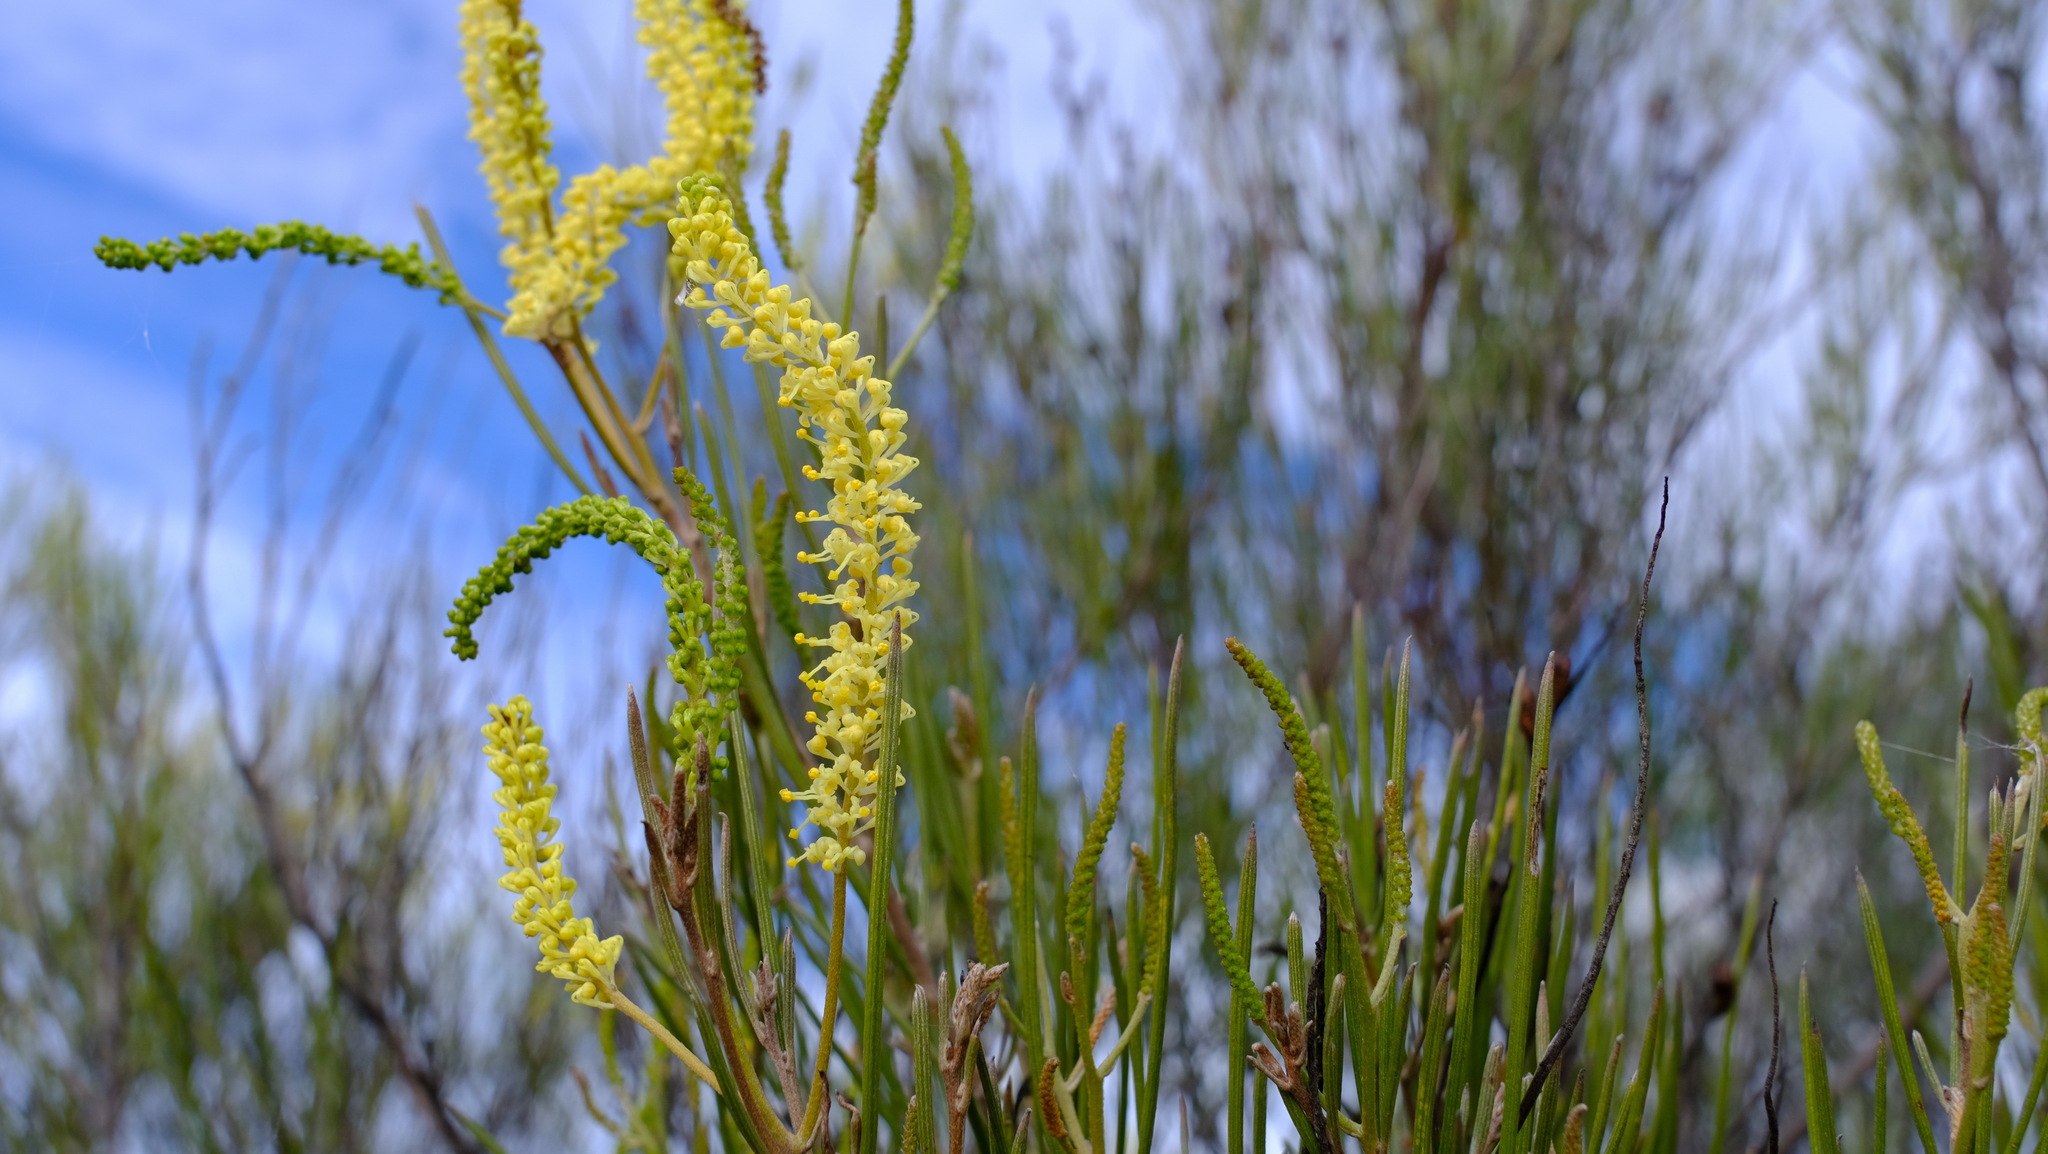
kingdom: Plantae
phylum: Tracheophyta
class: Magnoliopsida
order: Proteales
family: Proteaceae
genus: Grevillea
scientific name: Grevillea didymobotrya
